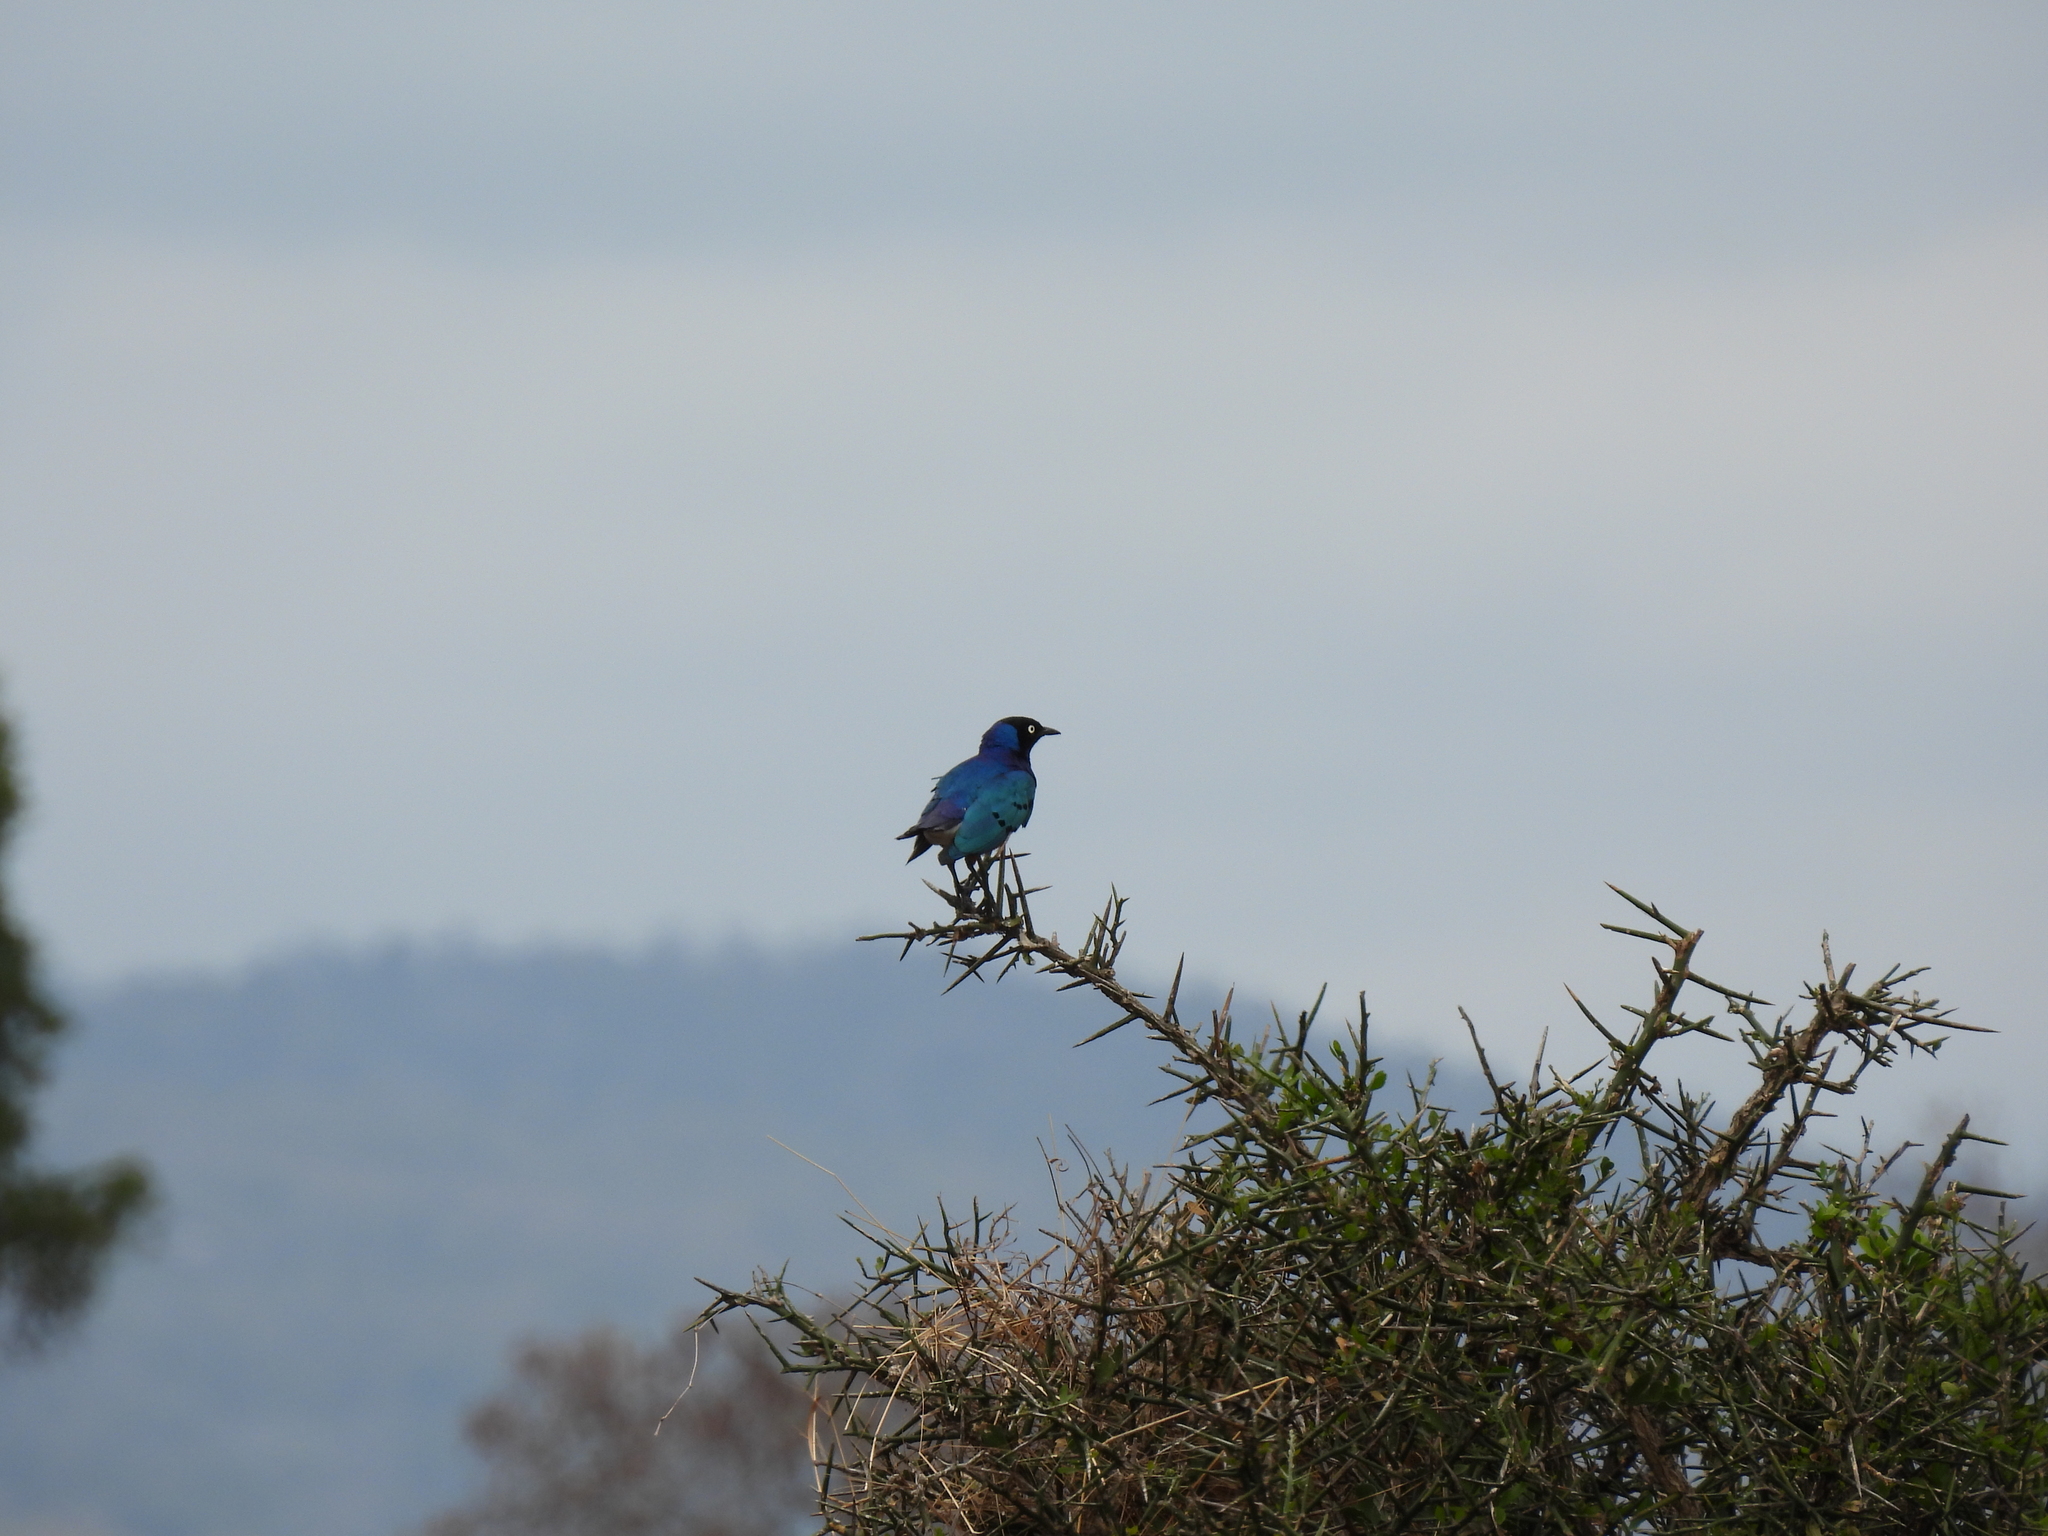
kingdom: Animalia
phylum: Chordata
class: Aves
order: Passeriformes
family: Sturnidae
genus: Lamprotornis
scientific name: Lamprotornis superbus
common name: Superb starling
